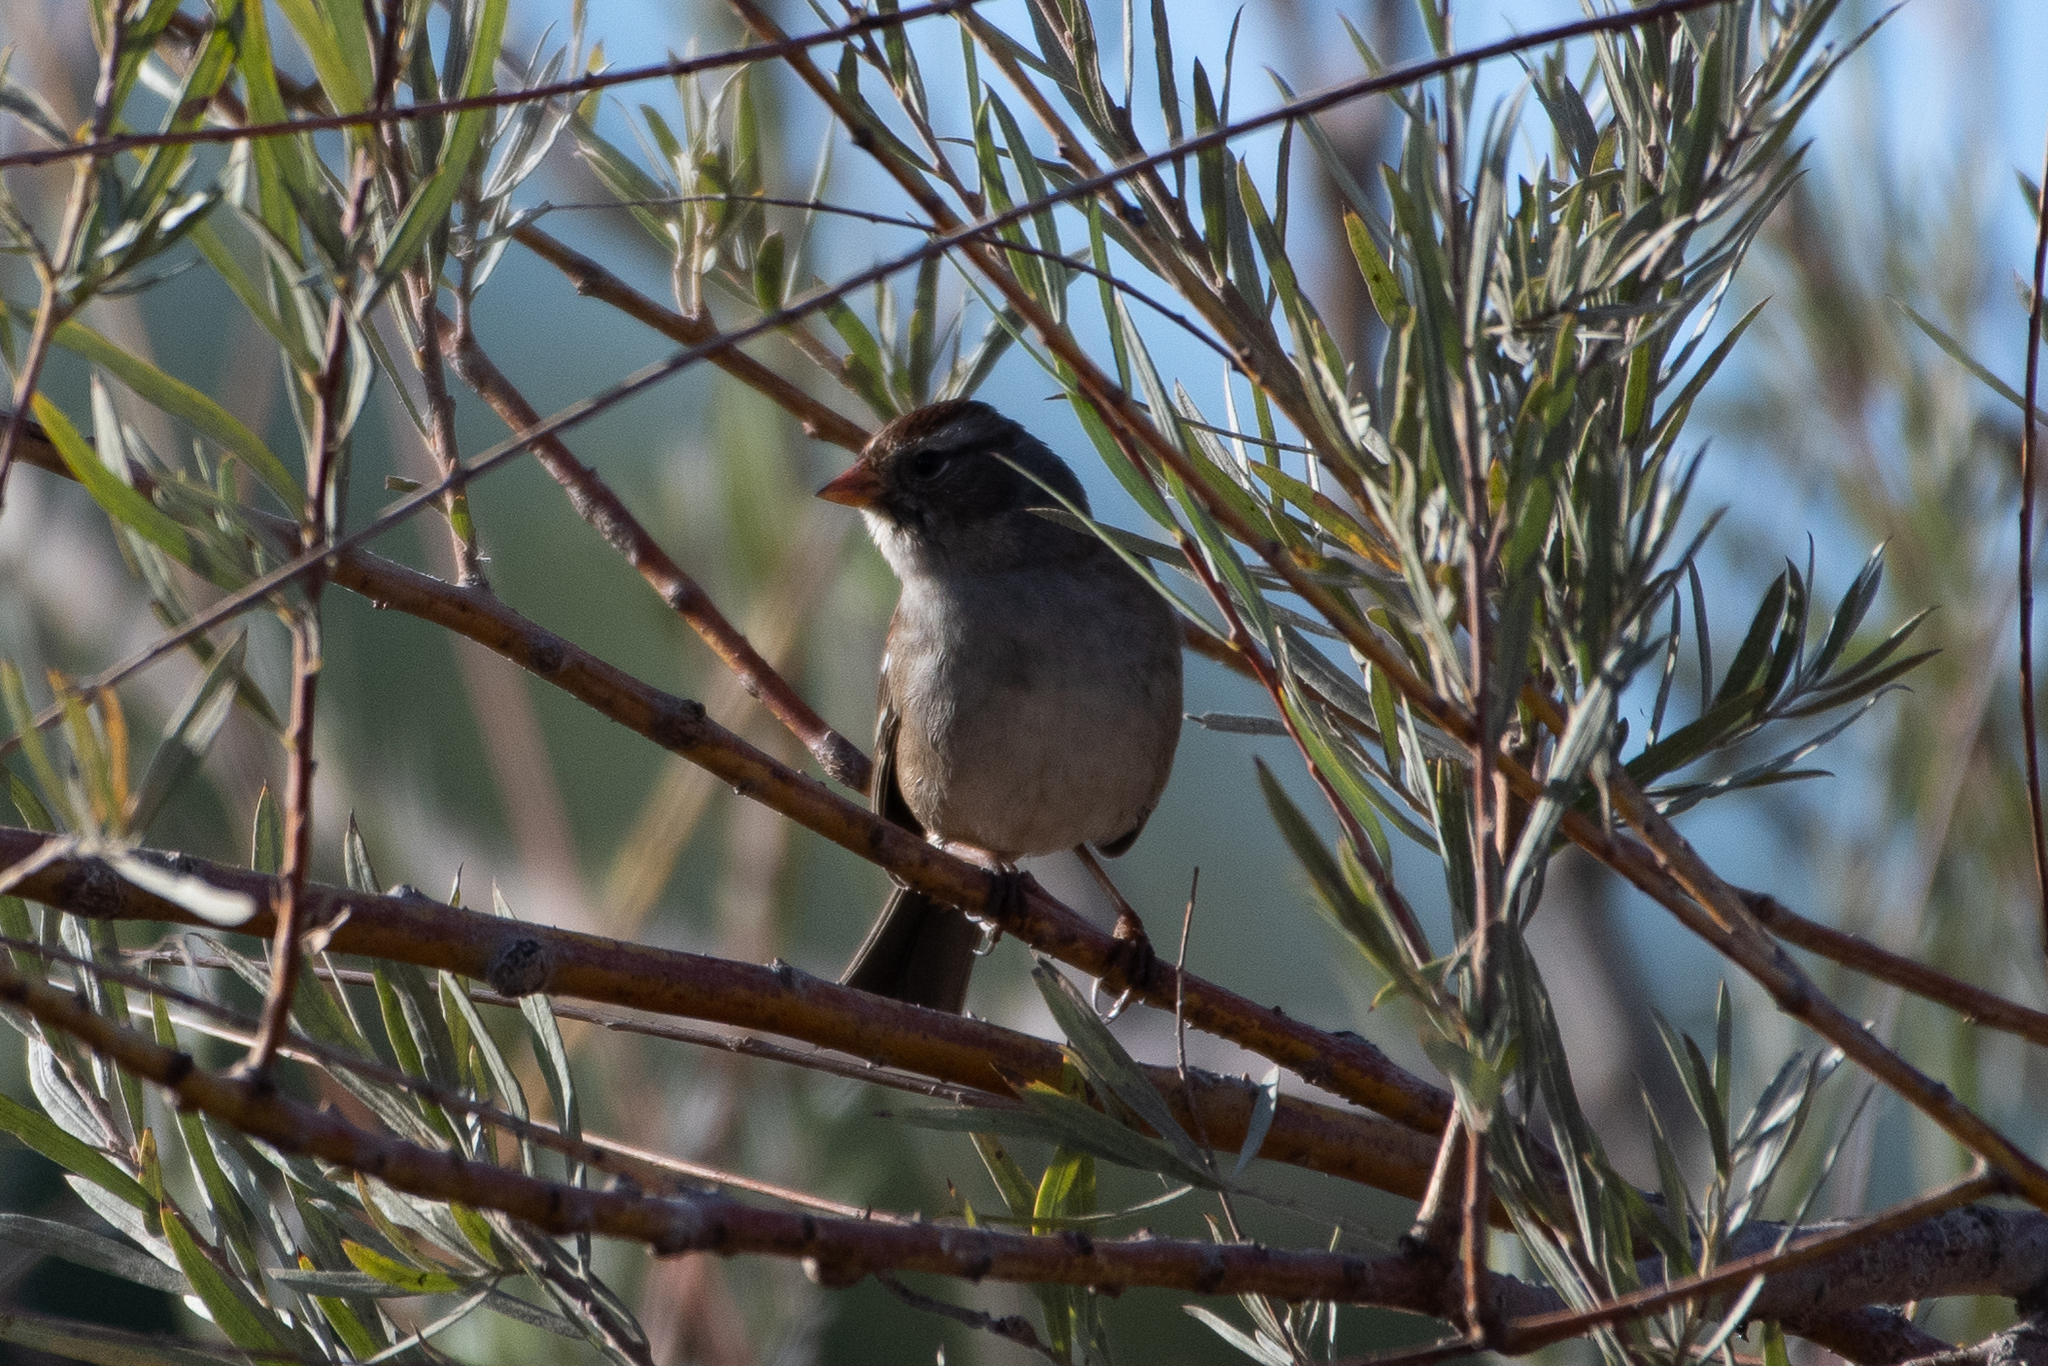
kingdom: Animalia
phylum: Chordata
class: Aves
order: Passeriformes
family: Passerellidae
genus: Zonotrichia
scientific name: Zonotrichia leucophrys
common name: White-crowned sparrow
